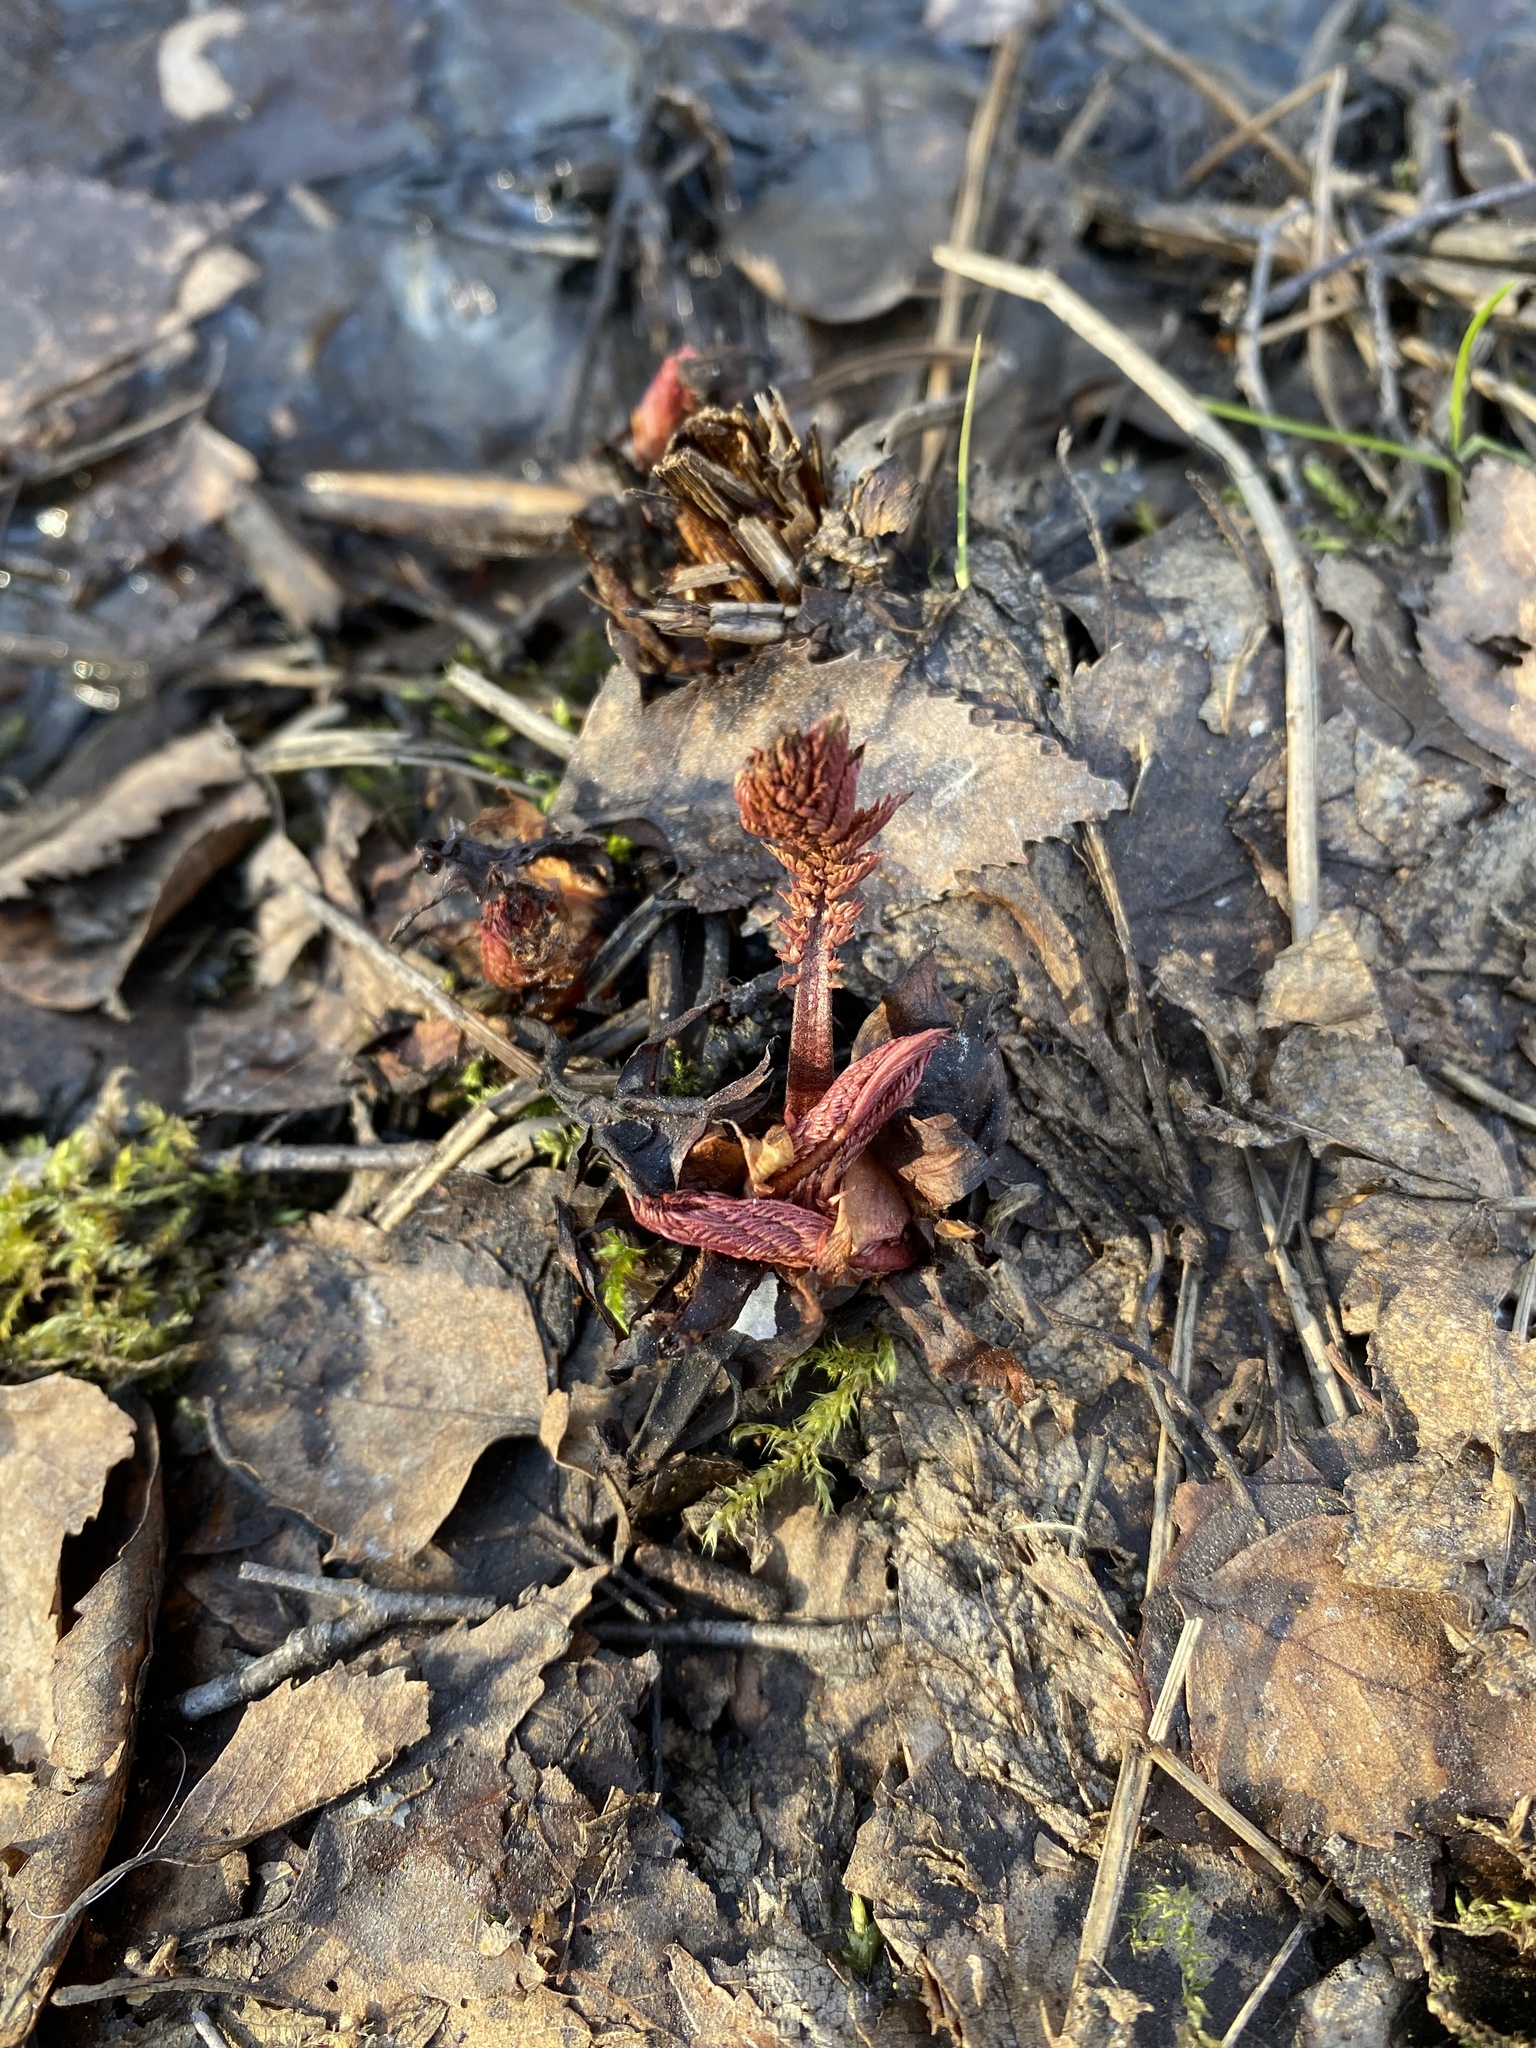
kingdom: Plantae
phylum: Tracheophyta
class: Magnoliopsida
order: Rosales
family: Rosaceae
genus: Filipendula
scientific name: Filipendula ulmaria
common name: Meadowsweet
